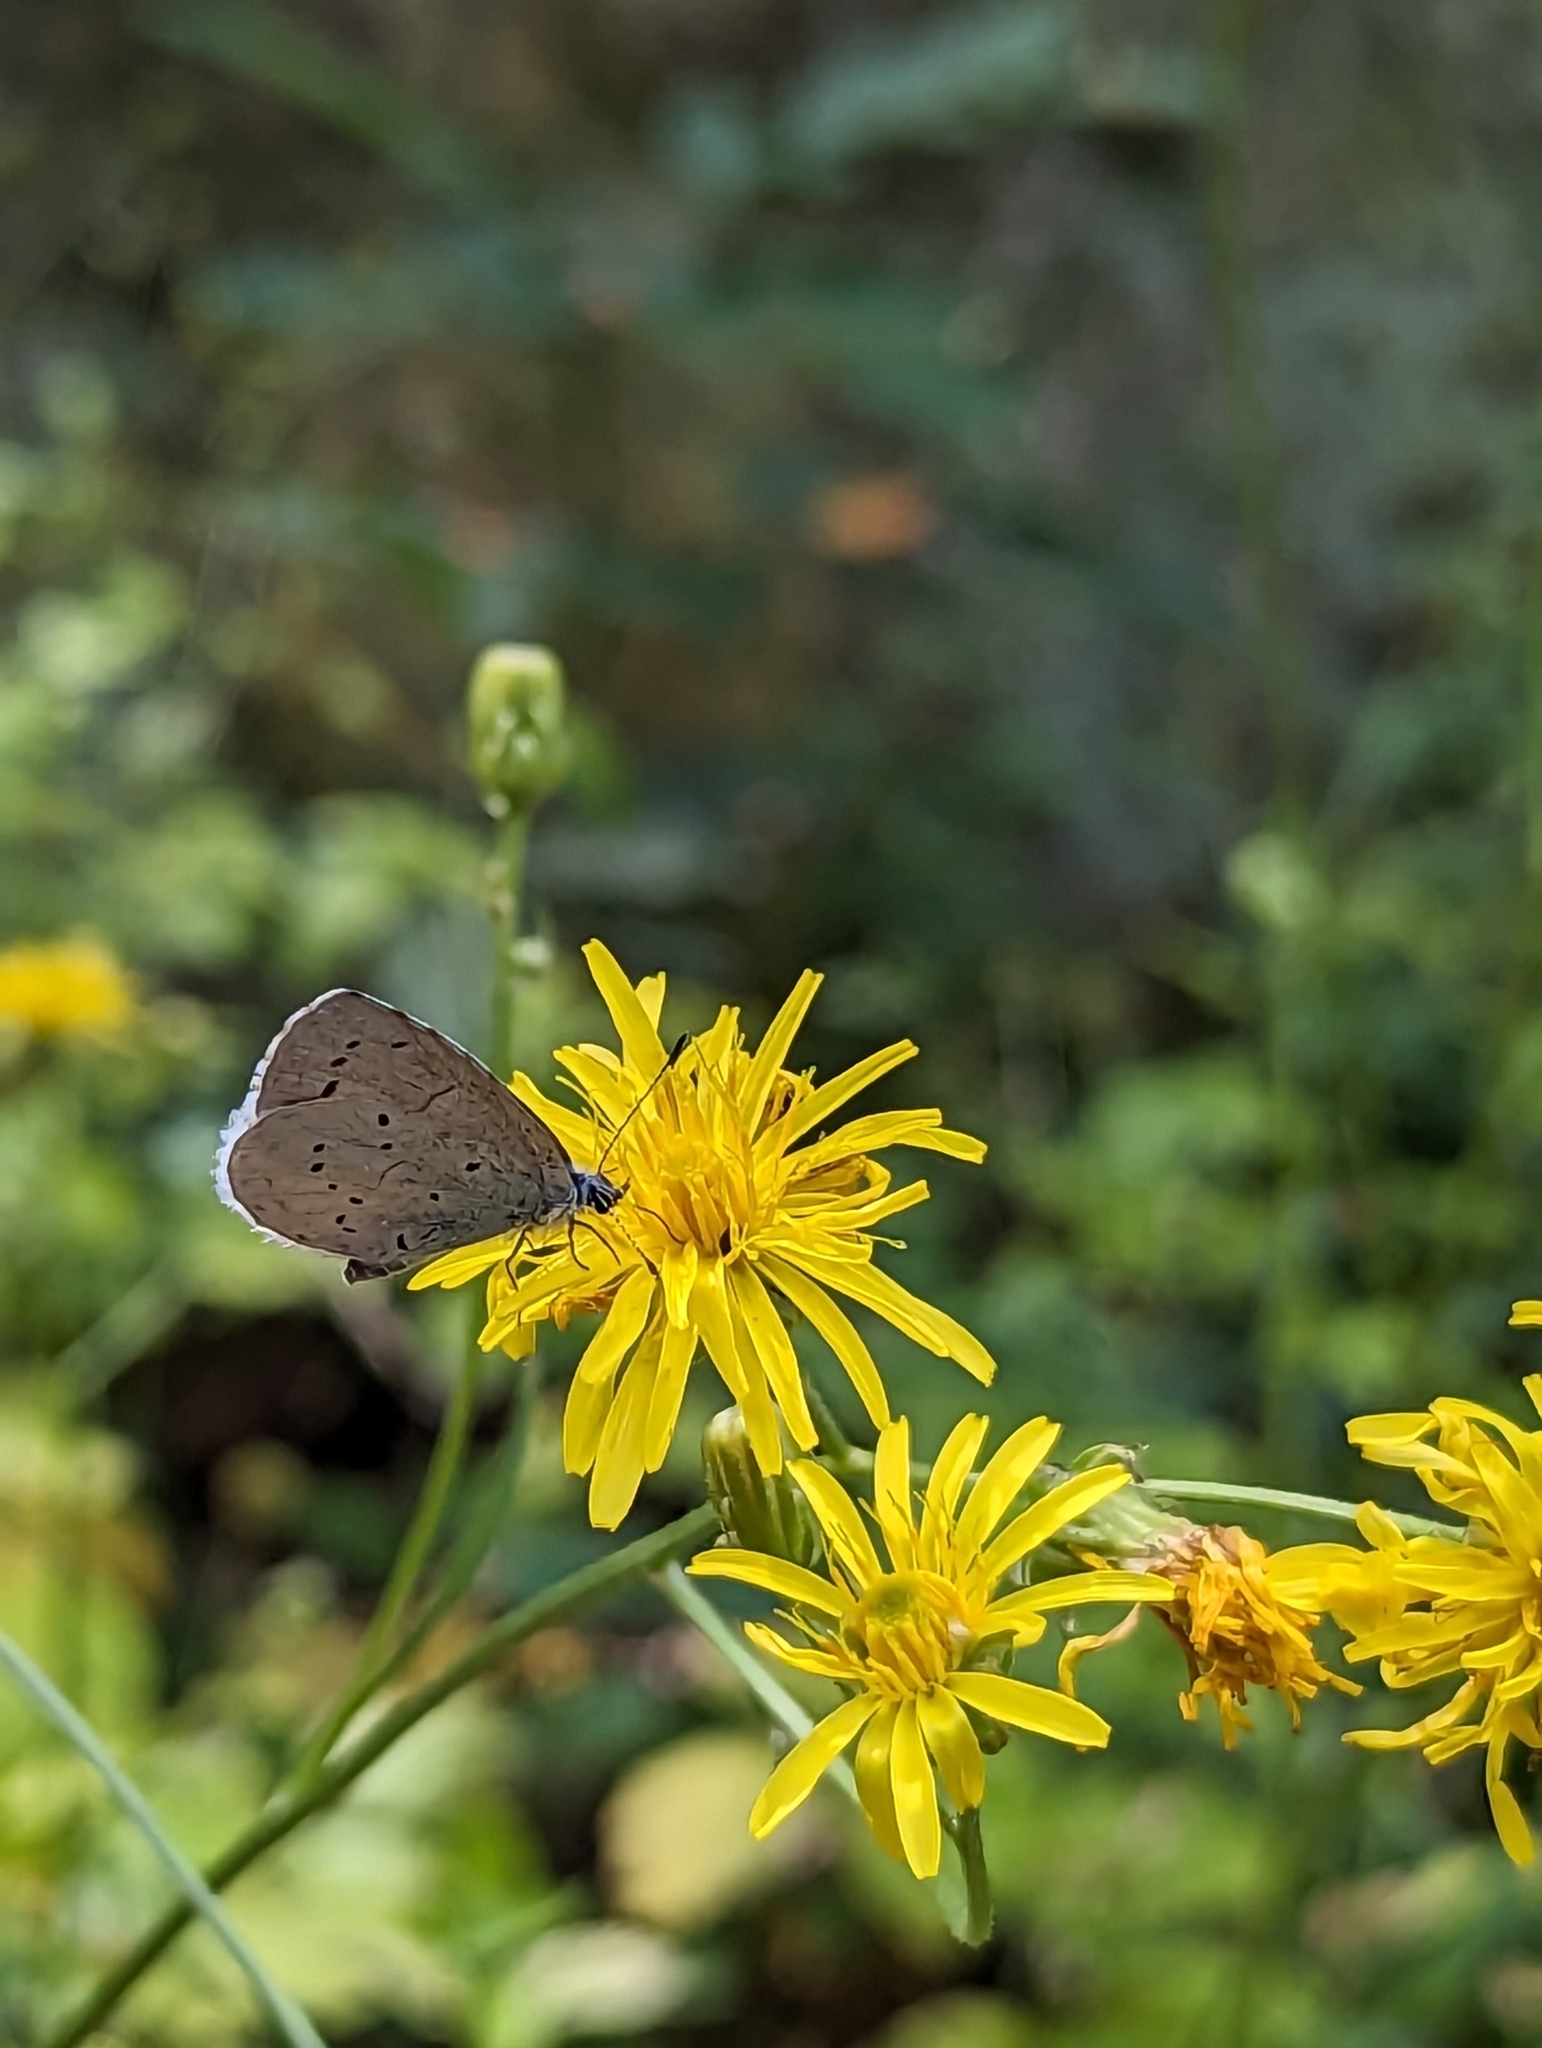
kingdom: Animalia
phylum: Arthropoda
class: Insecta
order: Lepidoptera
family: Lycaenidae
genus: Celastrina
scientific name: Celastrina argiolus
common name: Holly blue
